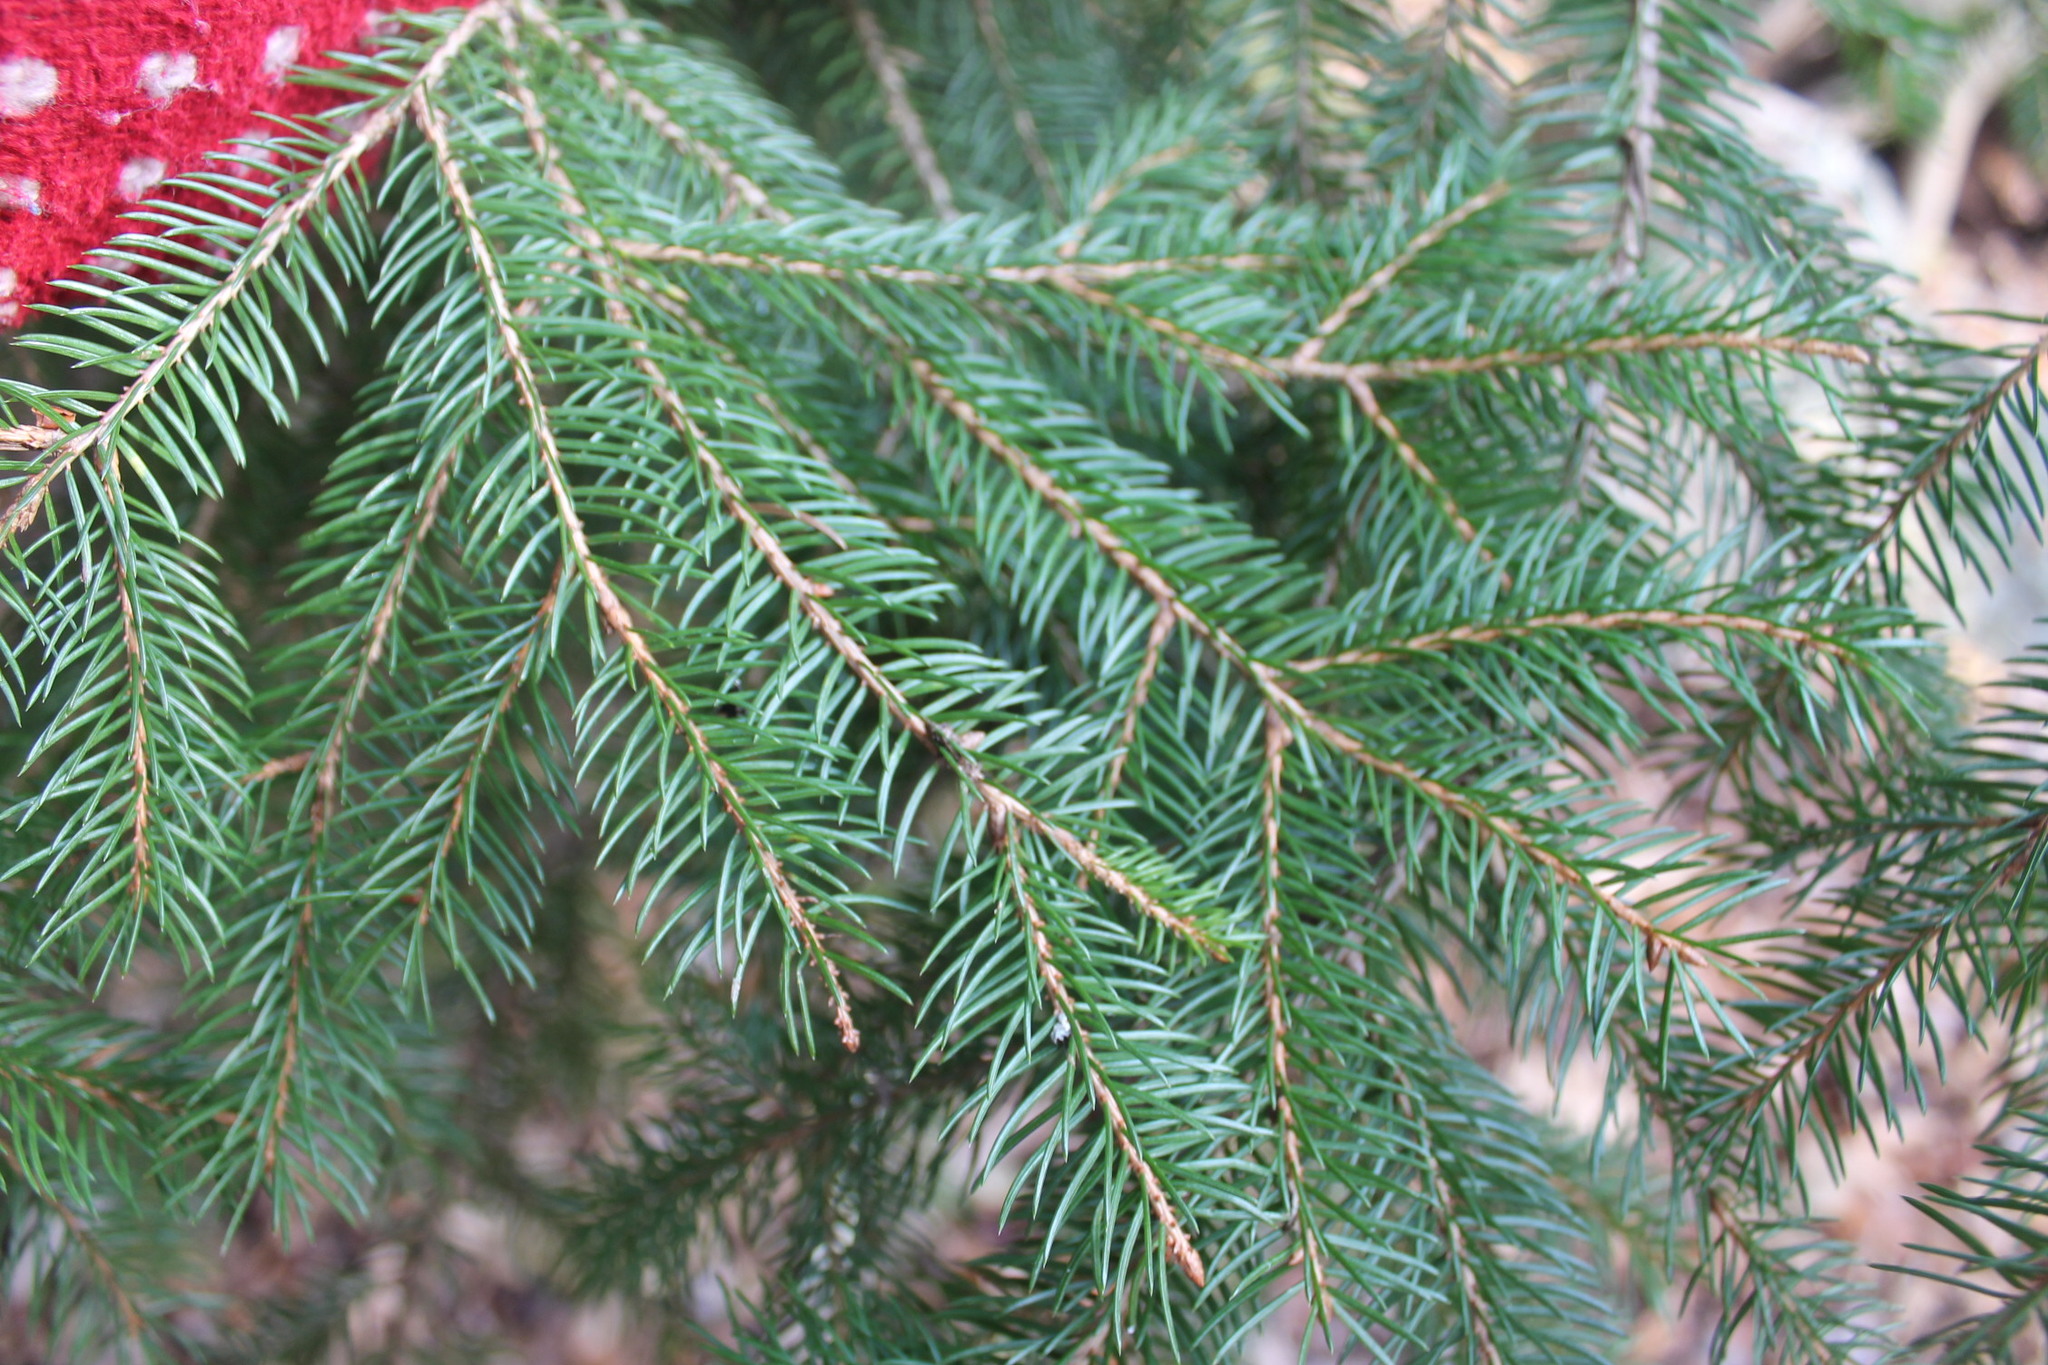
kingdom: Plantae
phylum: Tracheophyta
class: Pinopsida
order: Pinales
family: Pinaceae
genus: Picea
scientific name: Picea abies
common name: Norway spruce
